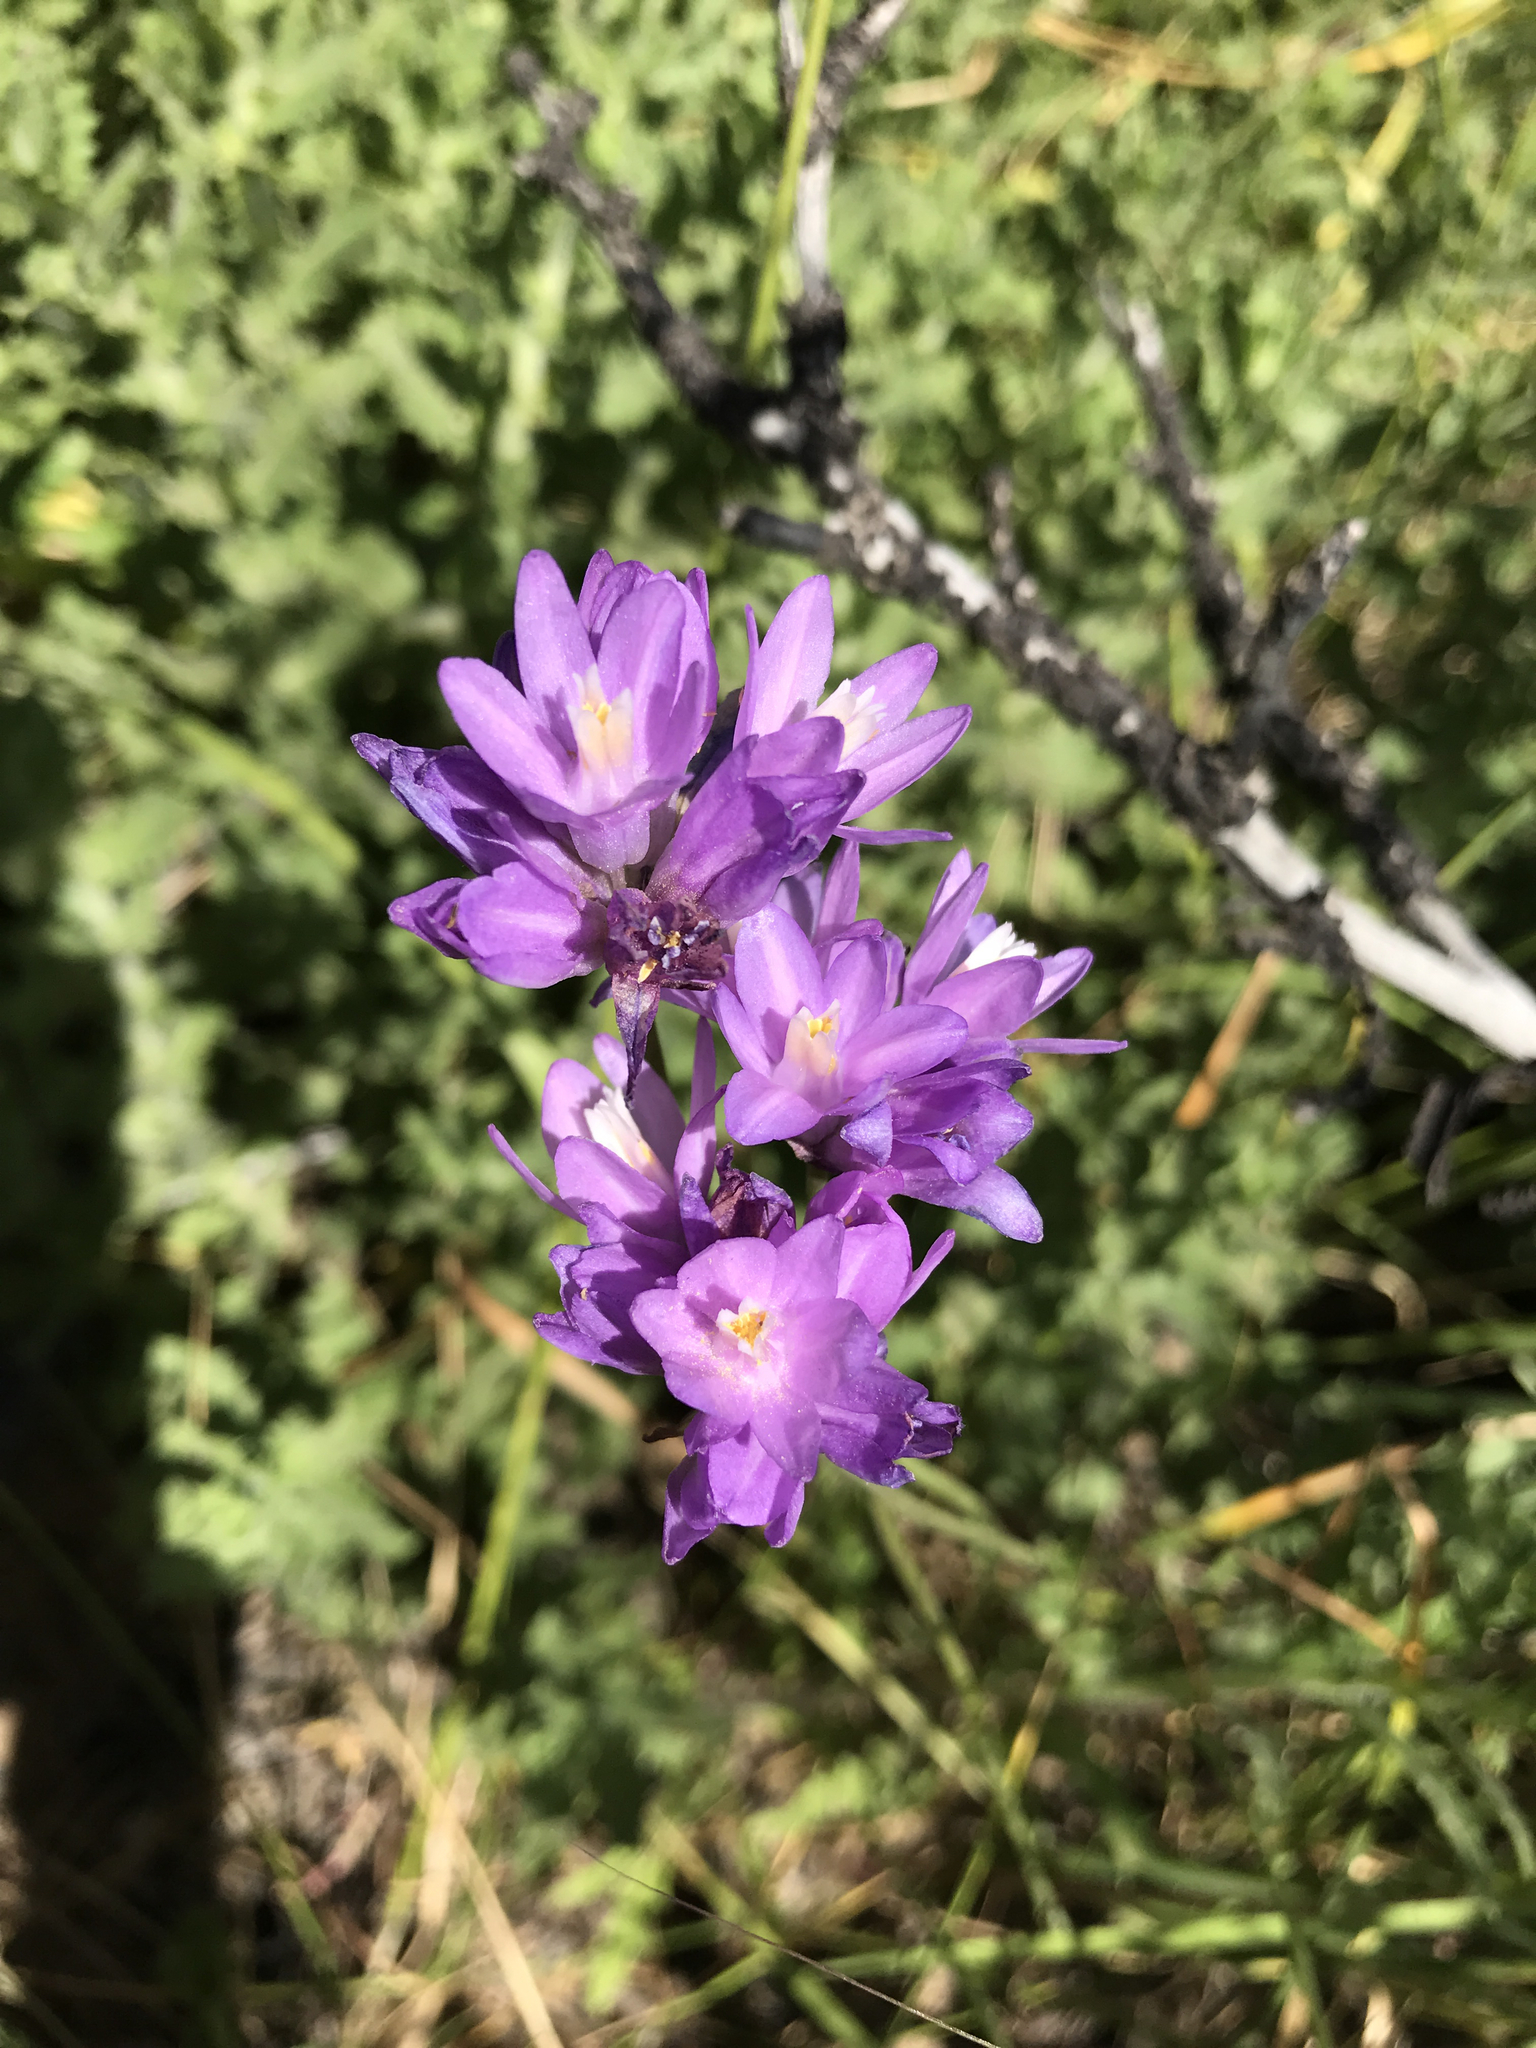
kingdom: Plantae
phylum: Tracheophyta
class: Liliopsida
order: Asparagales
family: Asparagaceae
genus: Dipterostemon
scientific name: Dipterostemon capitatus
